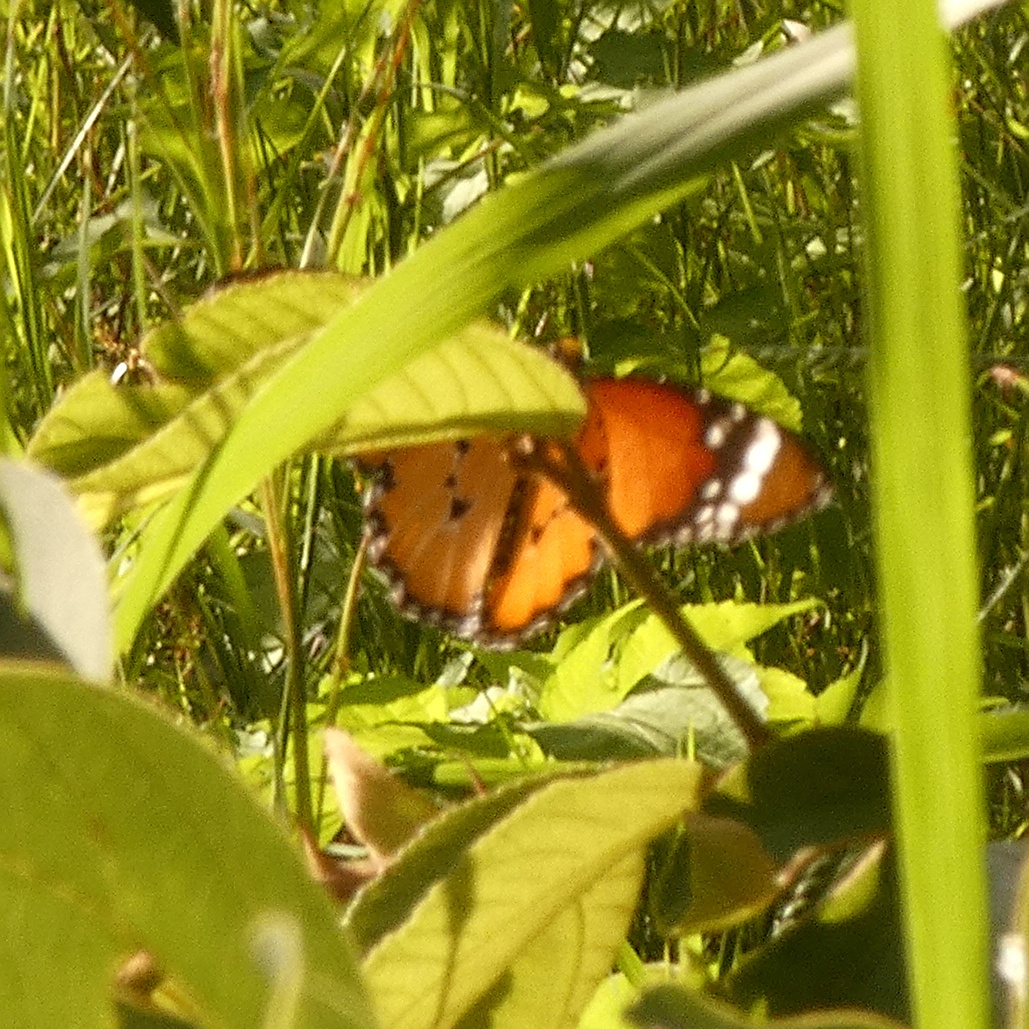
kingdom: Animalia
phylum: Arthropoda
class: Insecta
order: Lepidoptera
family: Nymphalidae
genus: Danaus
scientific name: Danaus chrysippus
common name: Plain tiger
